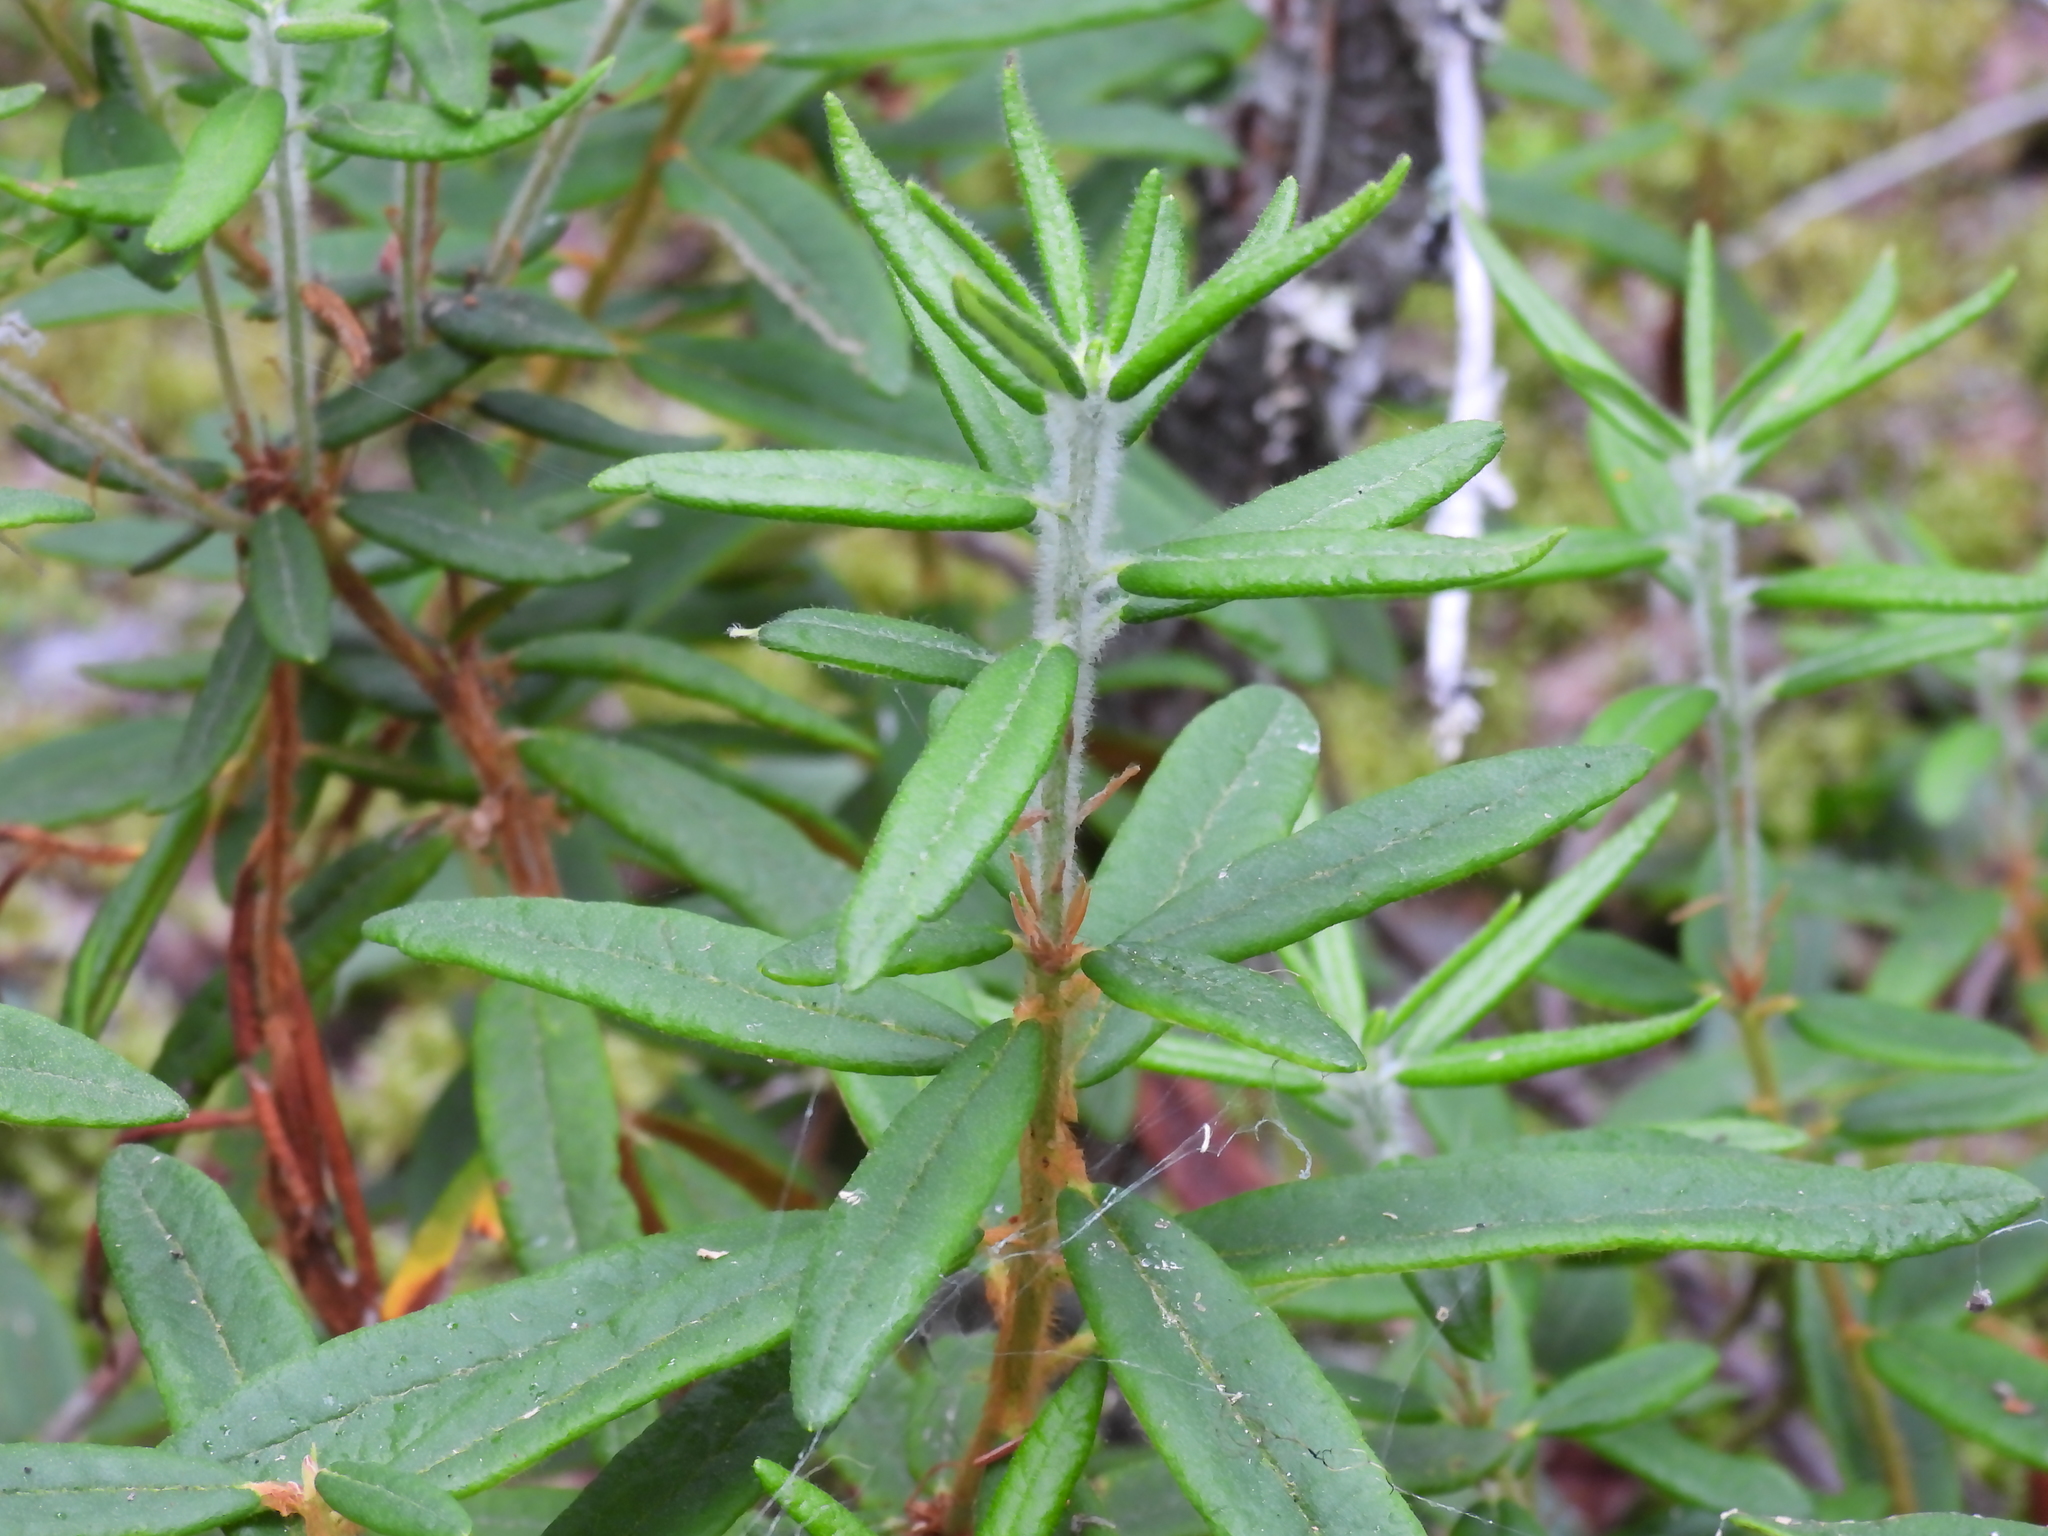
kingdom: Plantae
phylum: Tracheophyta
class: Magnoliopsida
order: Ericales
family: Ericaceae
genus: Rhododendron
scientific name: Rhododendron groenlandicum
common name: Bog labrador tea
